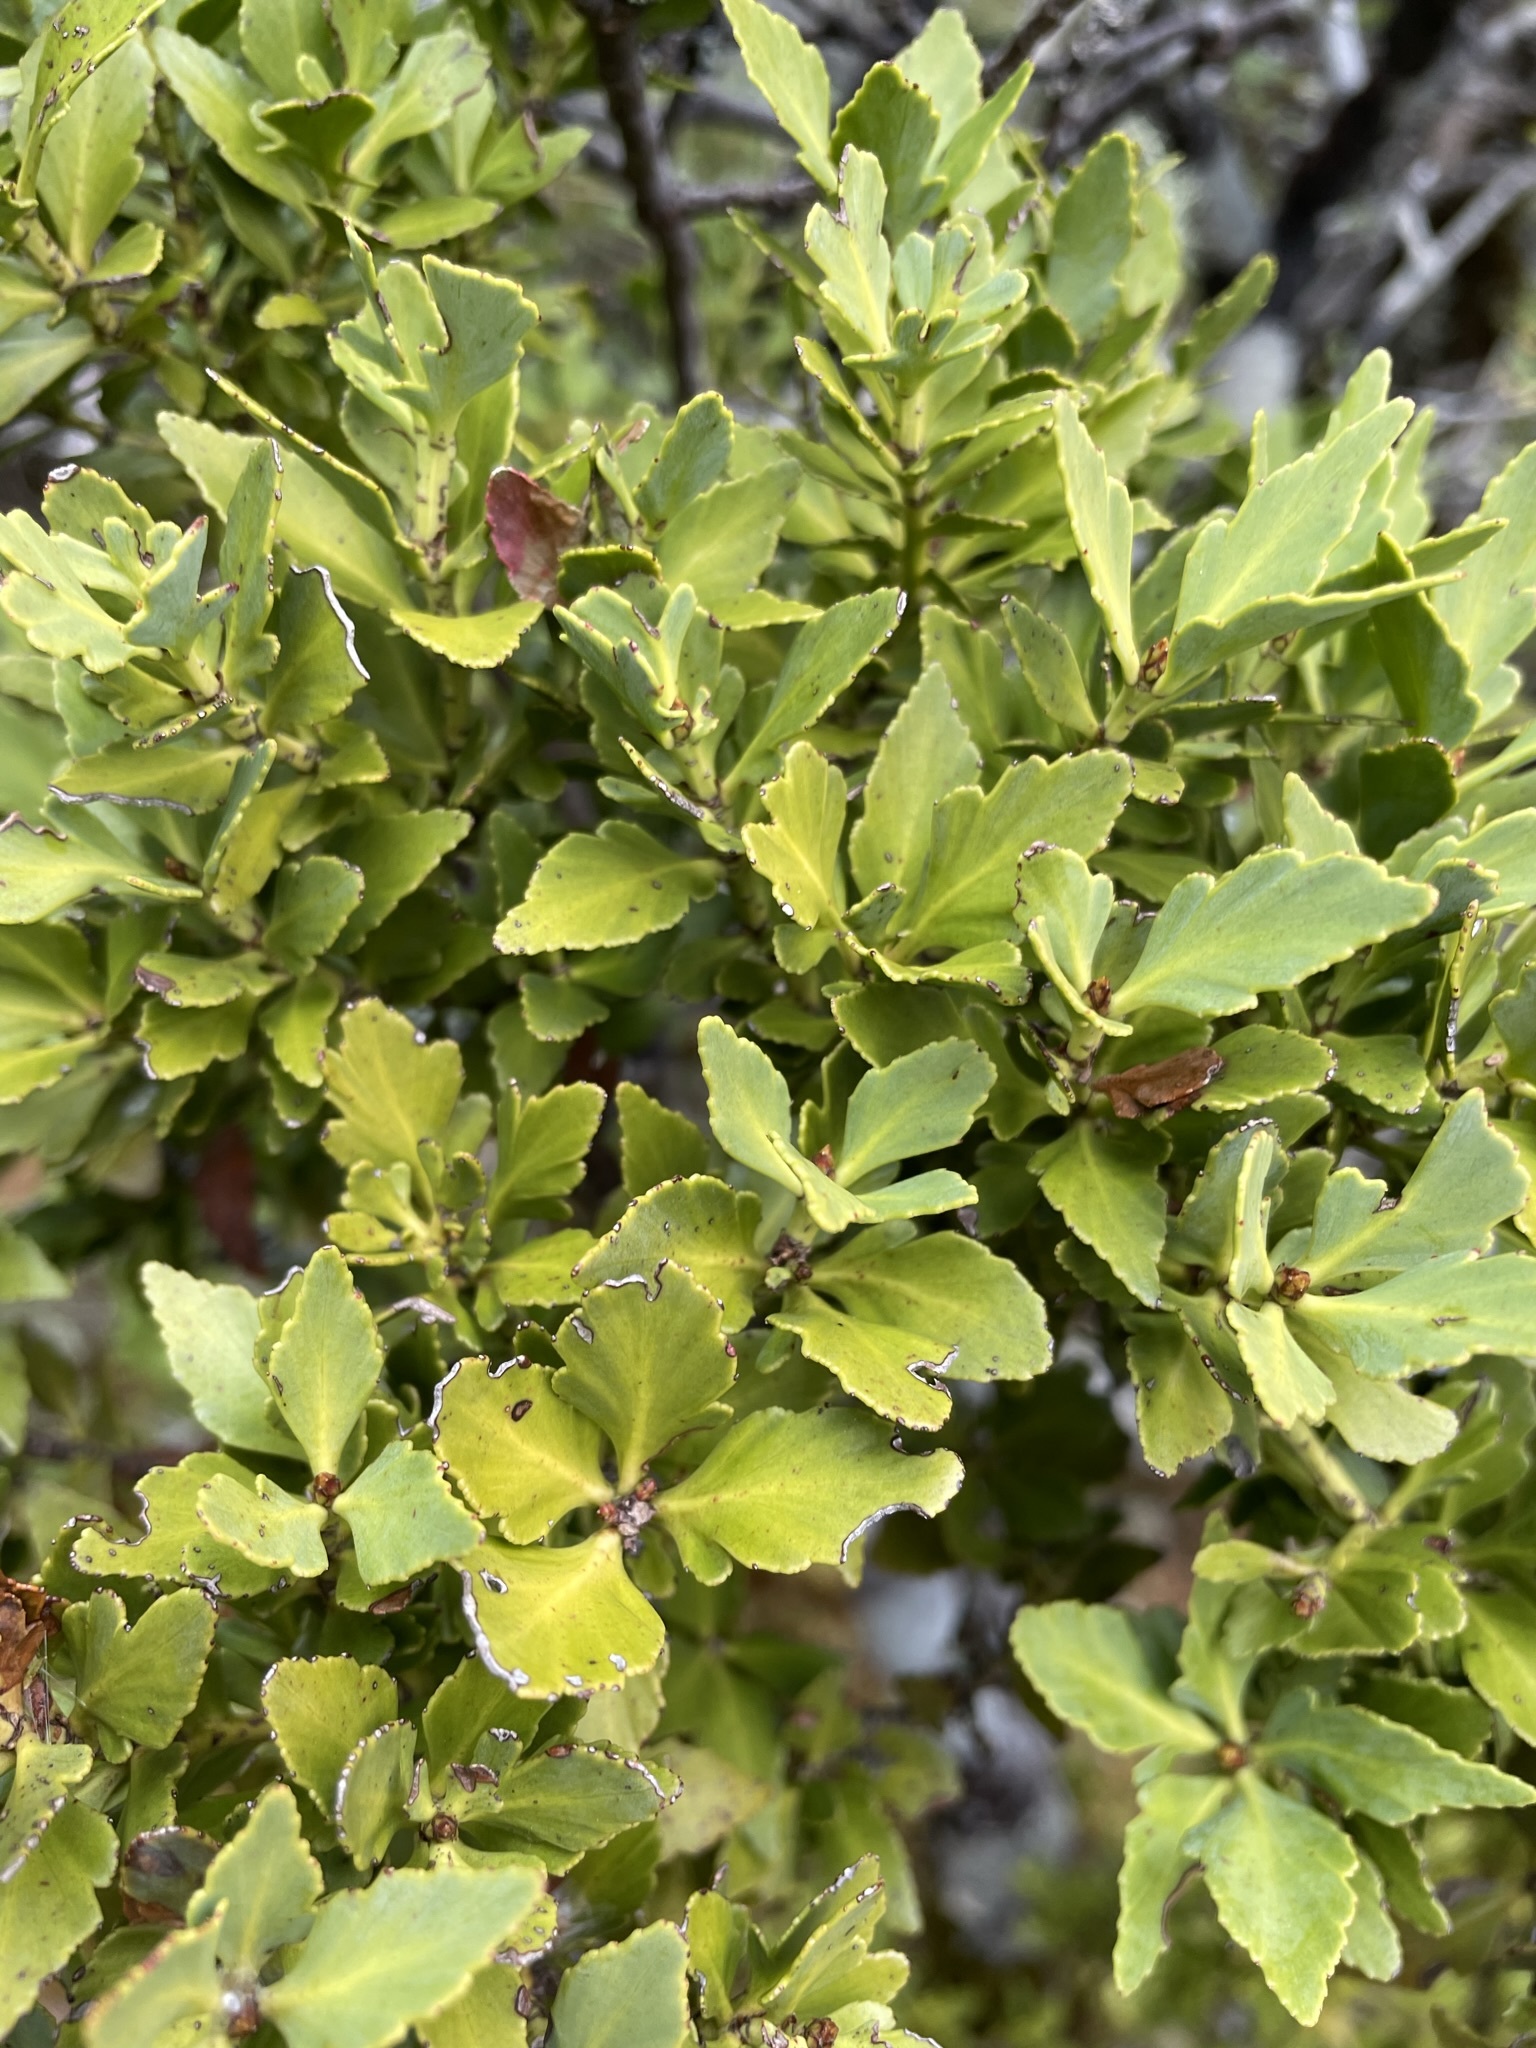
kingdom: Plantae
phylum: Tracheophyta
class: Pinopsida
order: Pinales
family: Phyllocladaceae
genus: Phyllocladus
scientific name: Phyllocladus trichomanoides
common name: Celery pine
